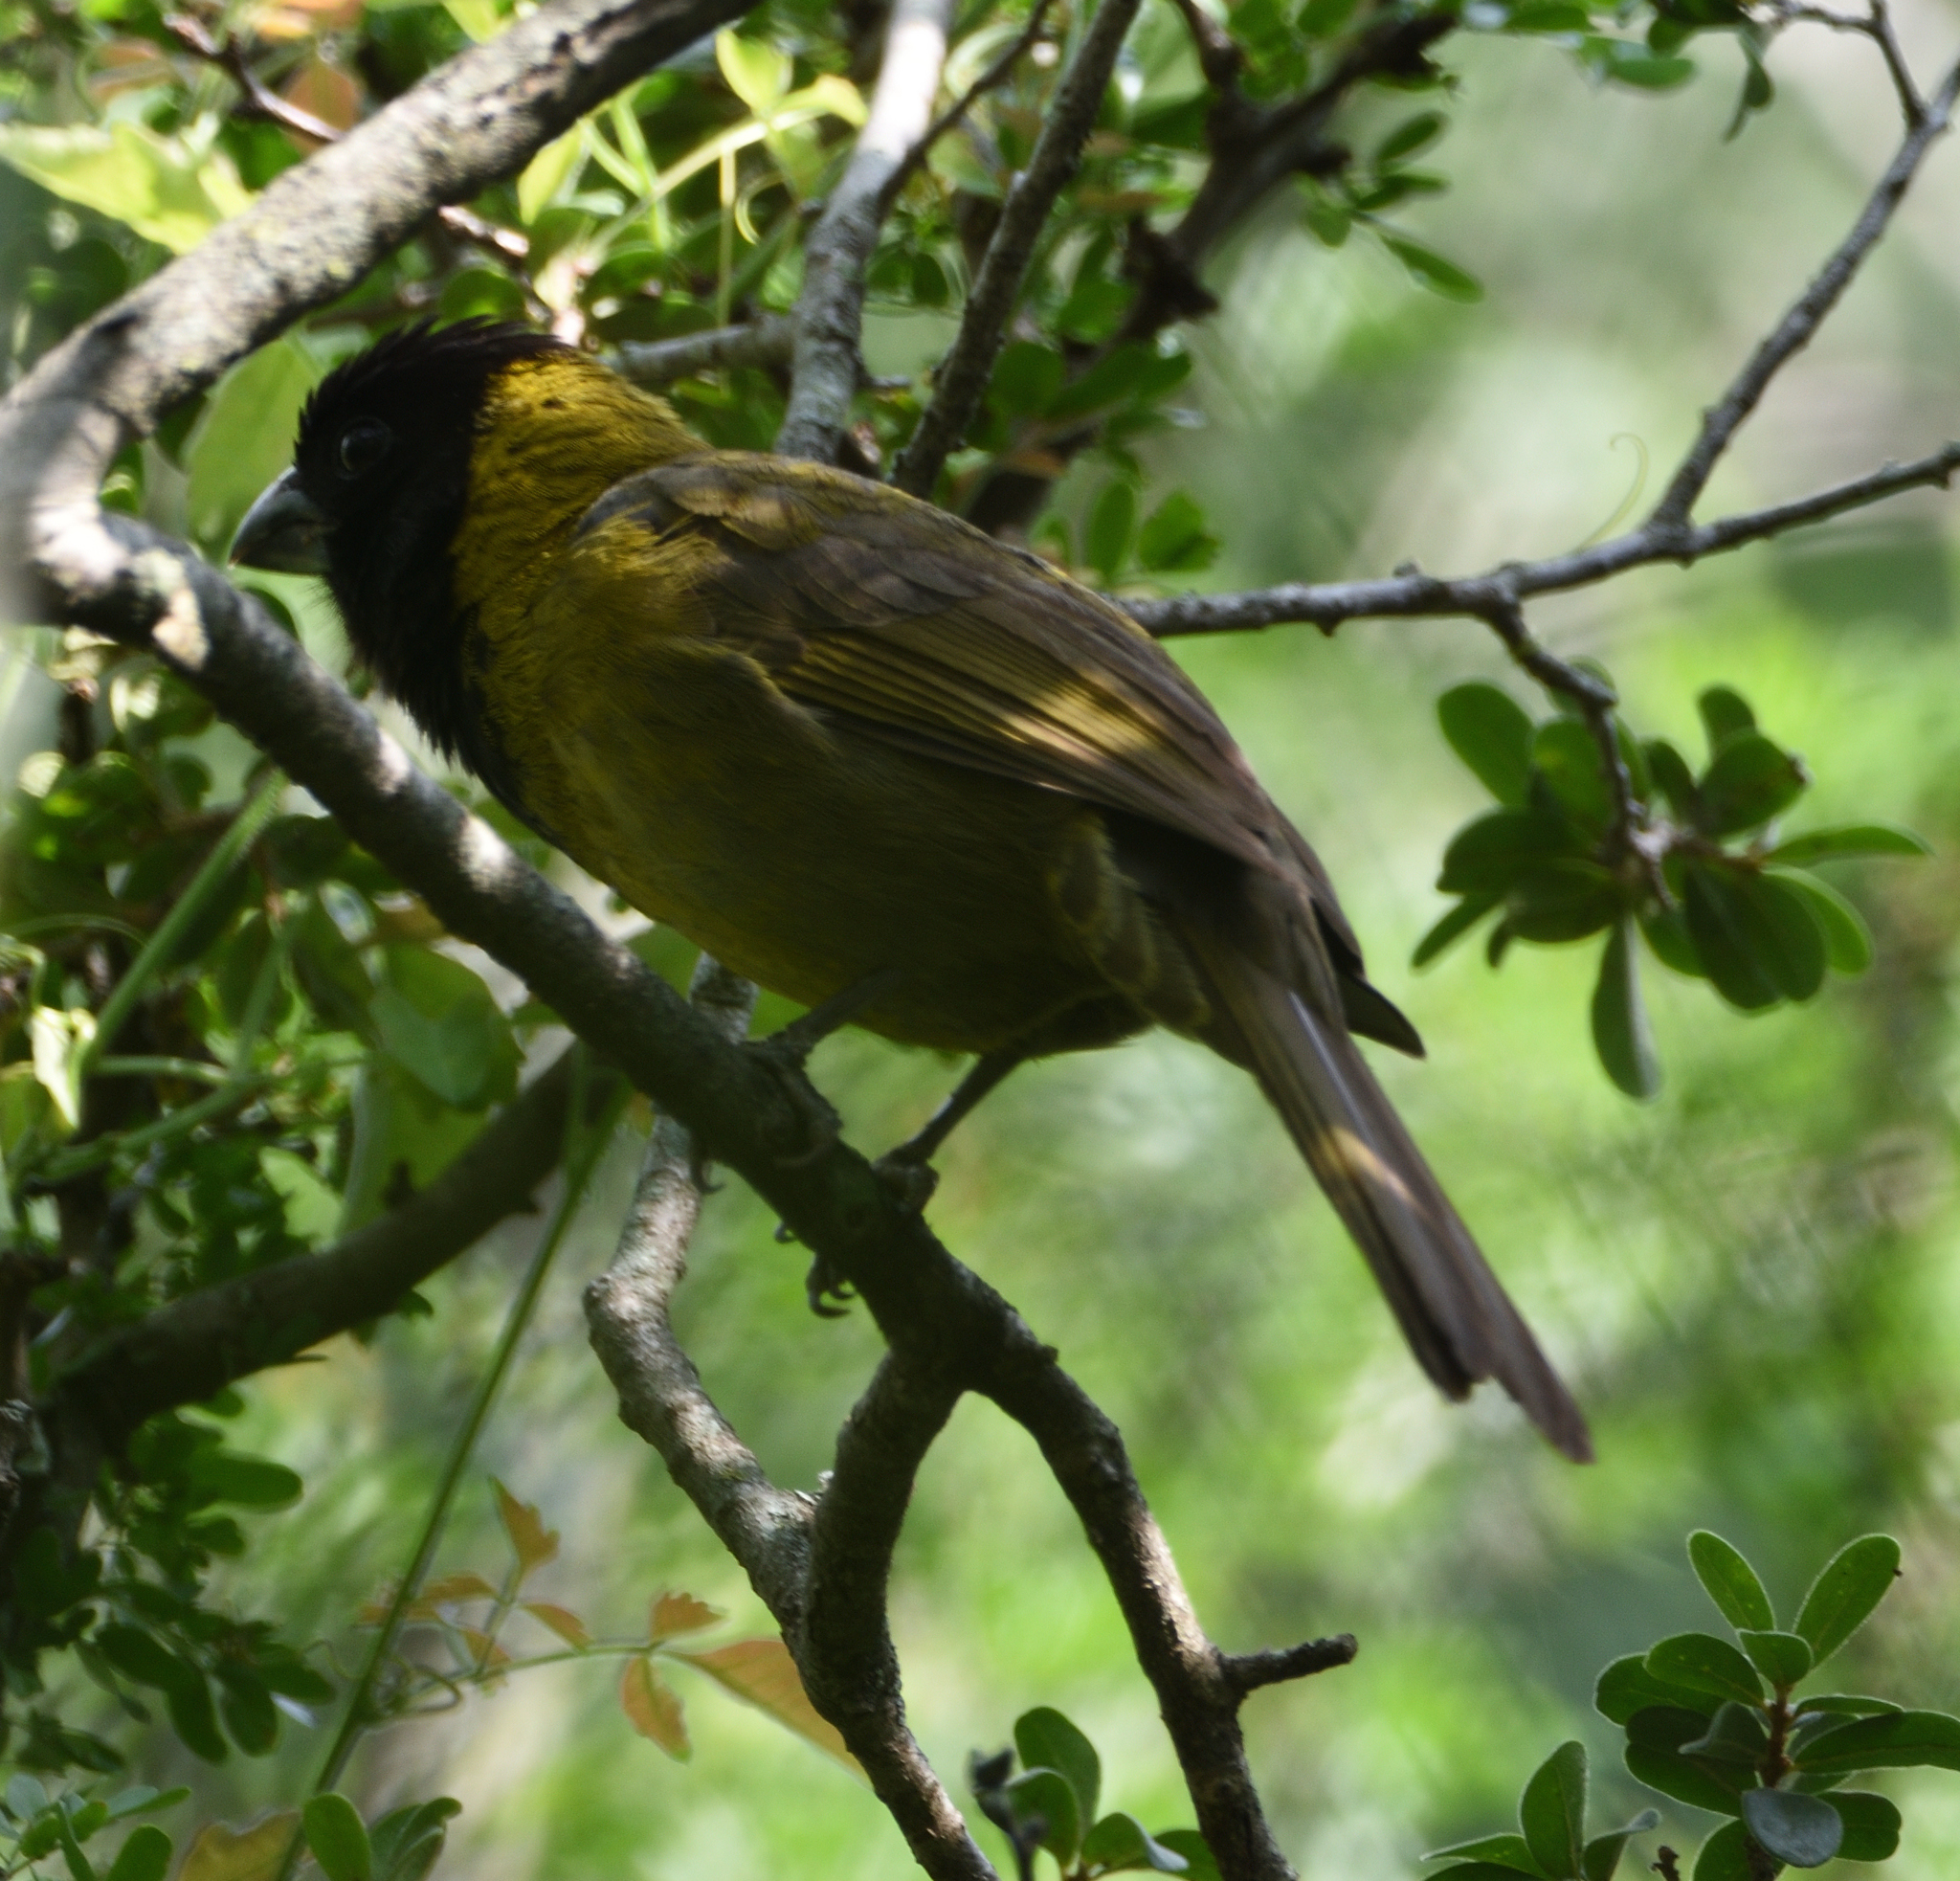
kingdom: Animalia
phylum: Chordata
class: Aves
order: Passeriformes
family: Cardinalidae
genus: Rhodothraupis
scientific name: Rhodothraupis celaeno
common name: Crimson-collared grosbeak
